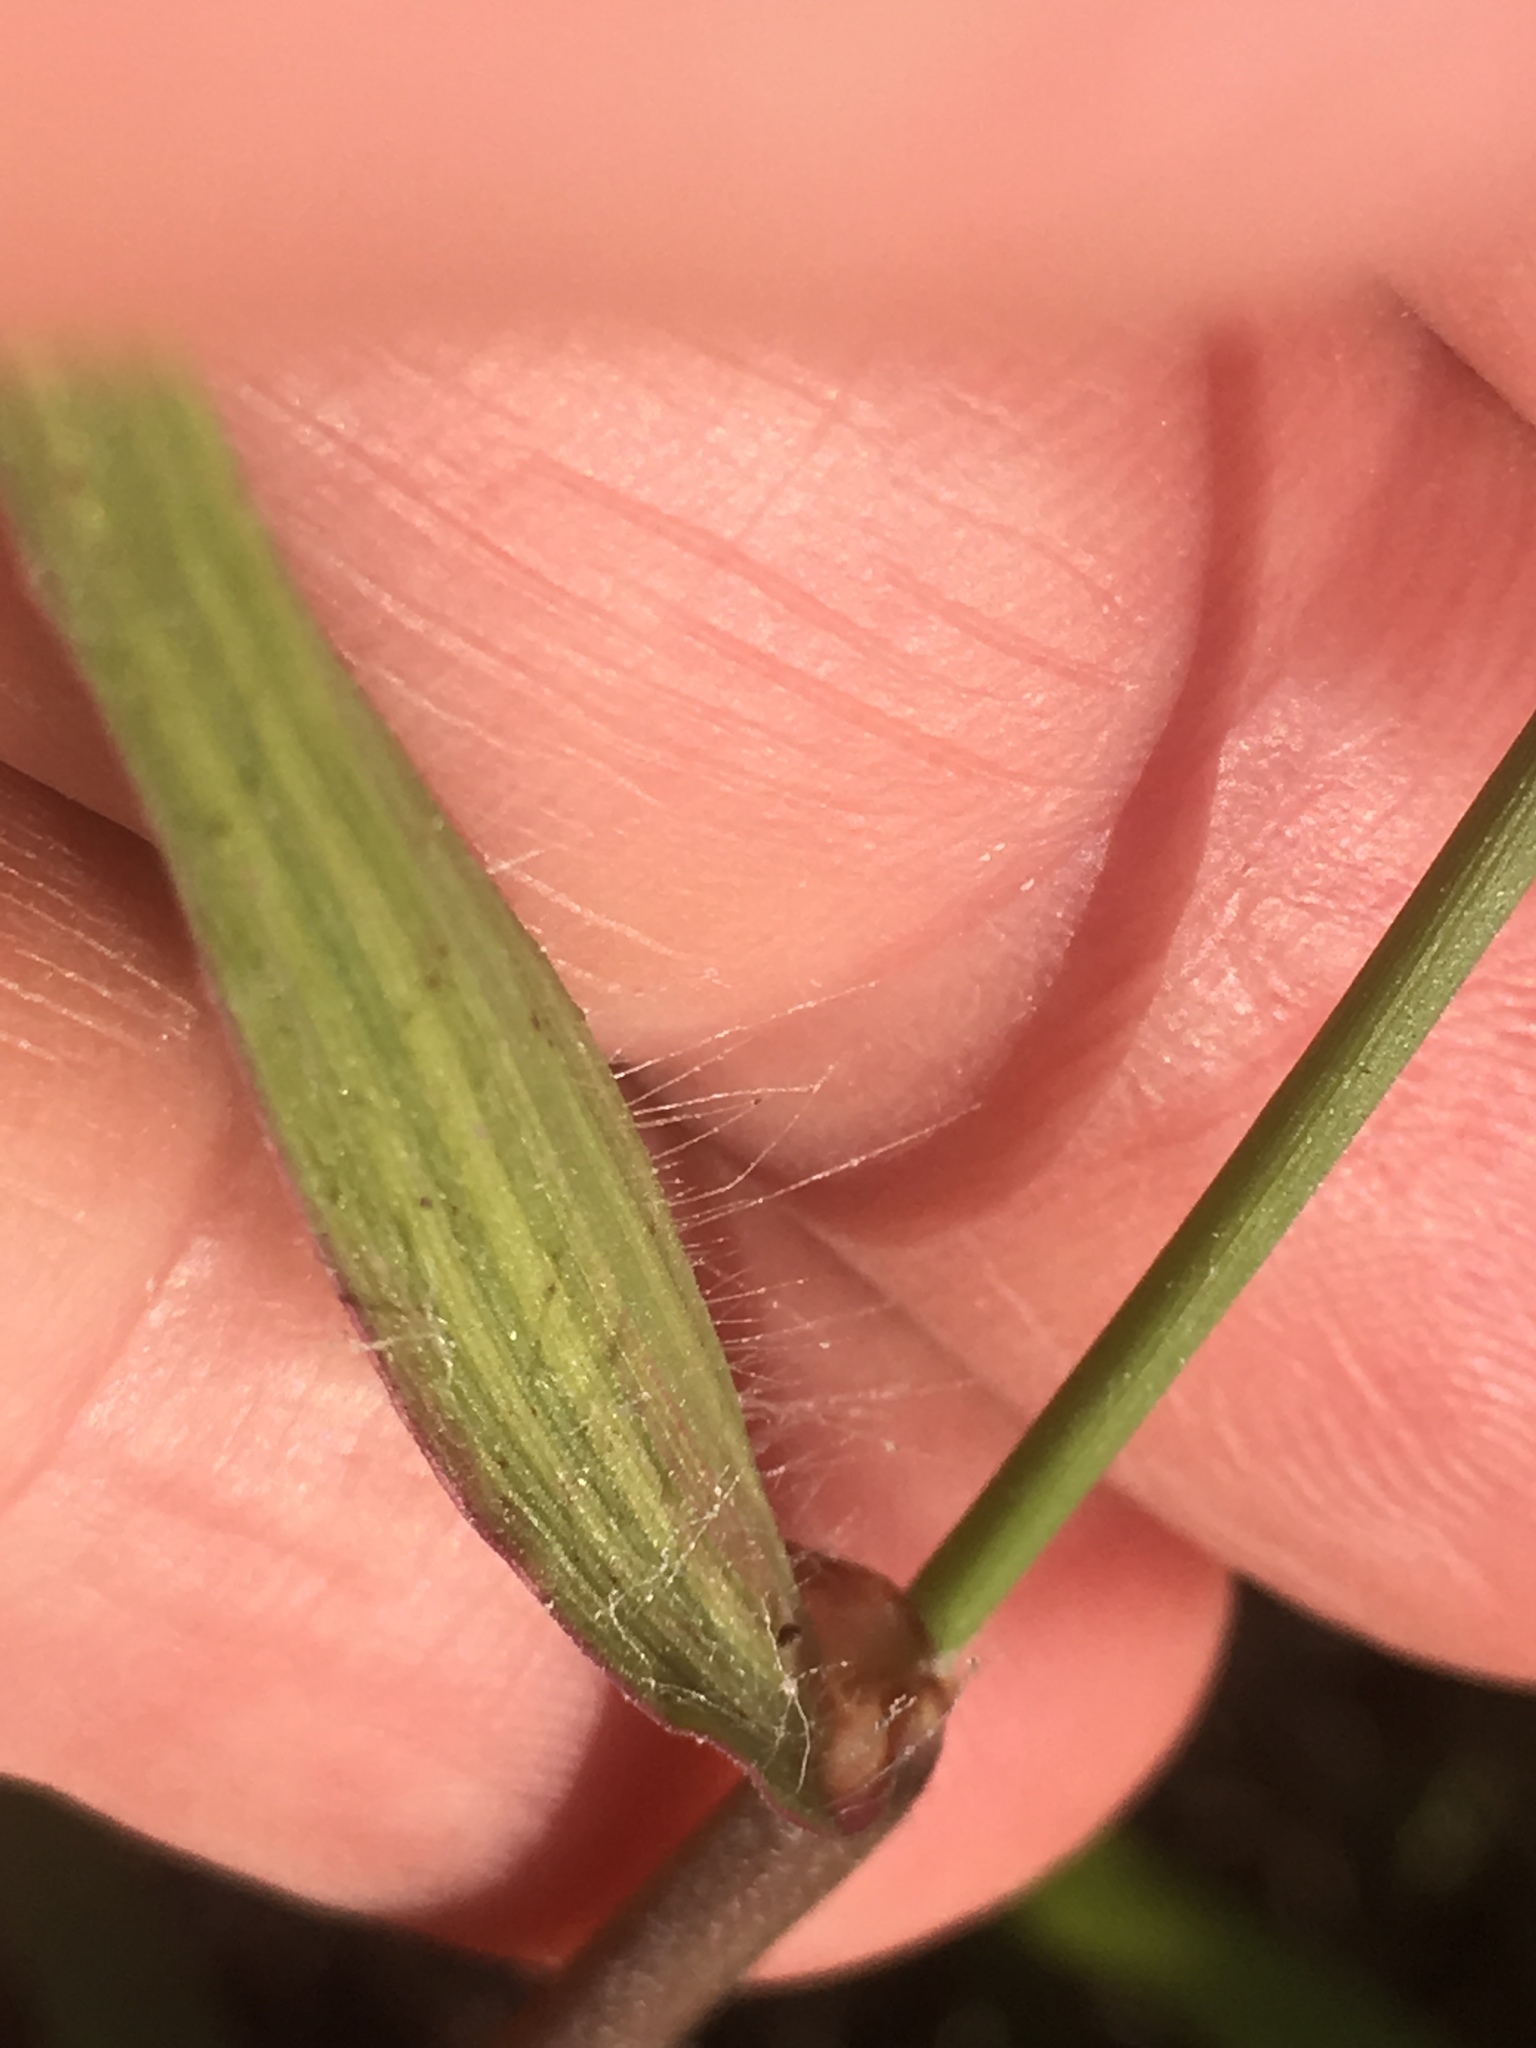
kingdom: Plantae
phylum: Tracheophyta
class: Liliopsida
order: Poales
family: Poaceae
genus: Cenchrus
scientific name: Cenchrus echinatus
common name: Southern sandbur
